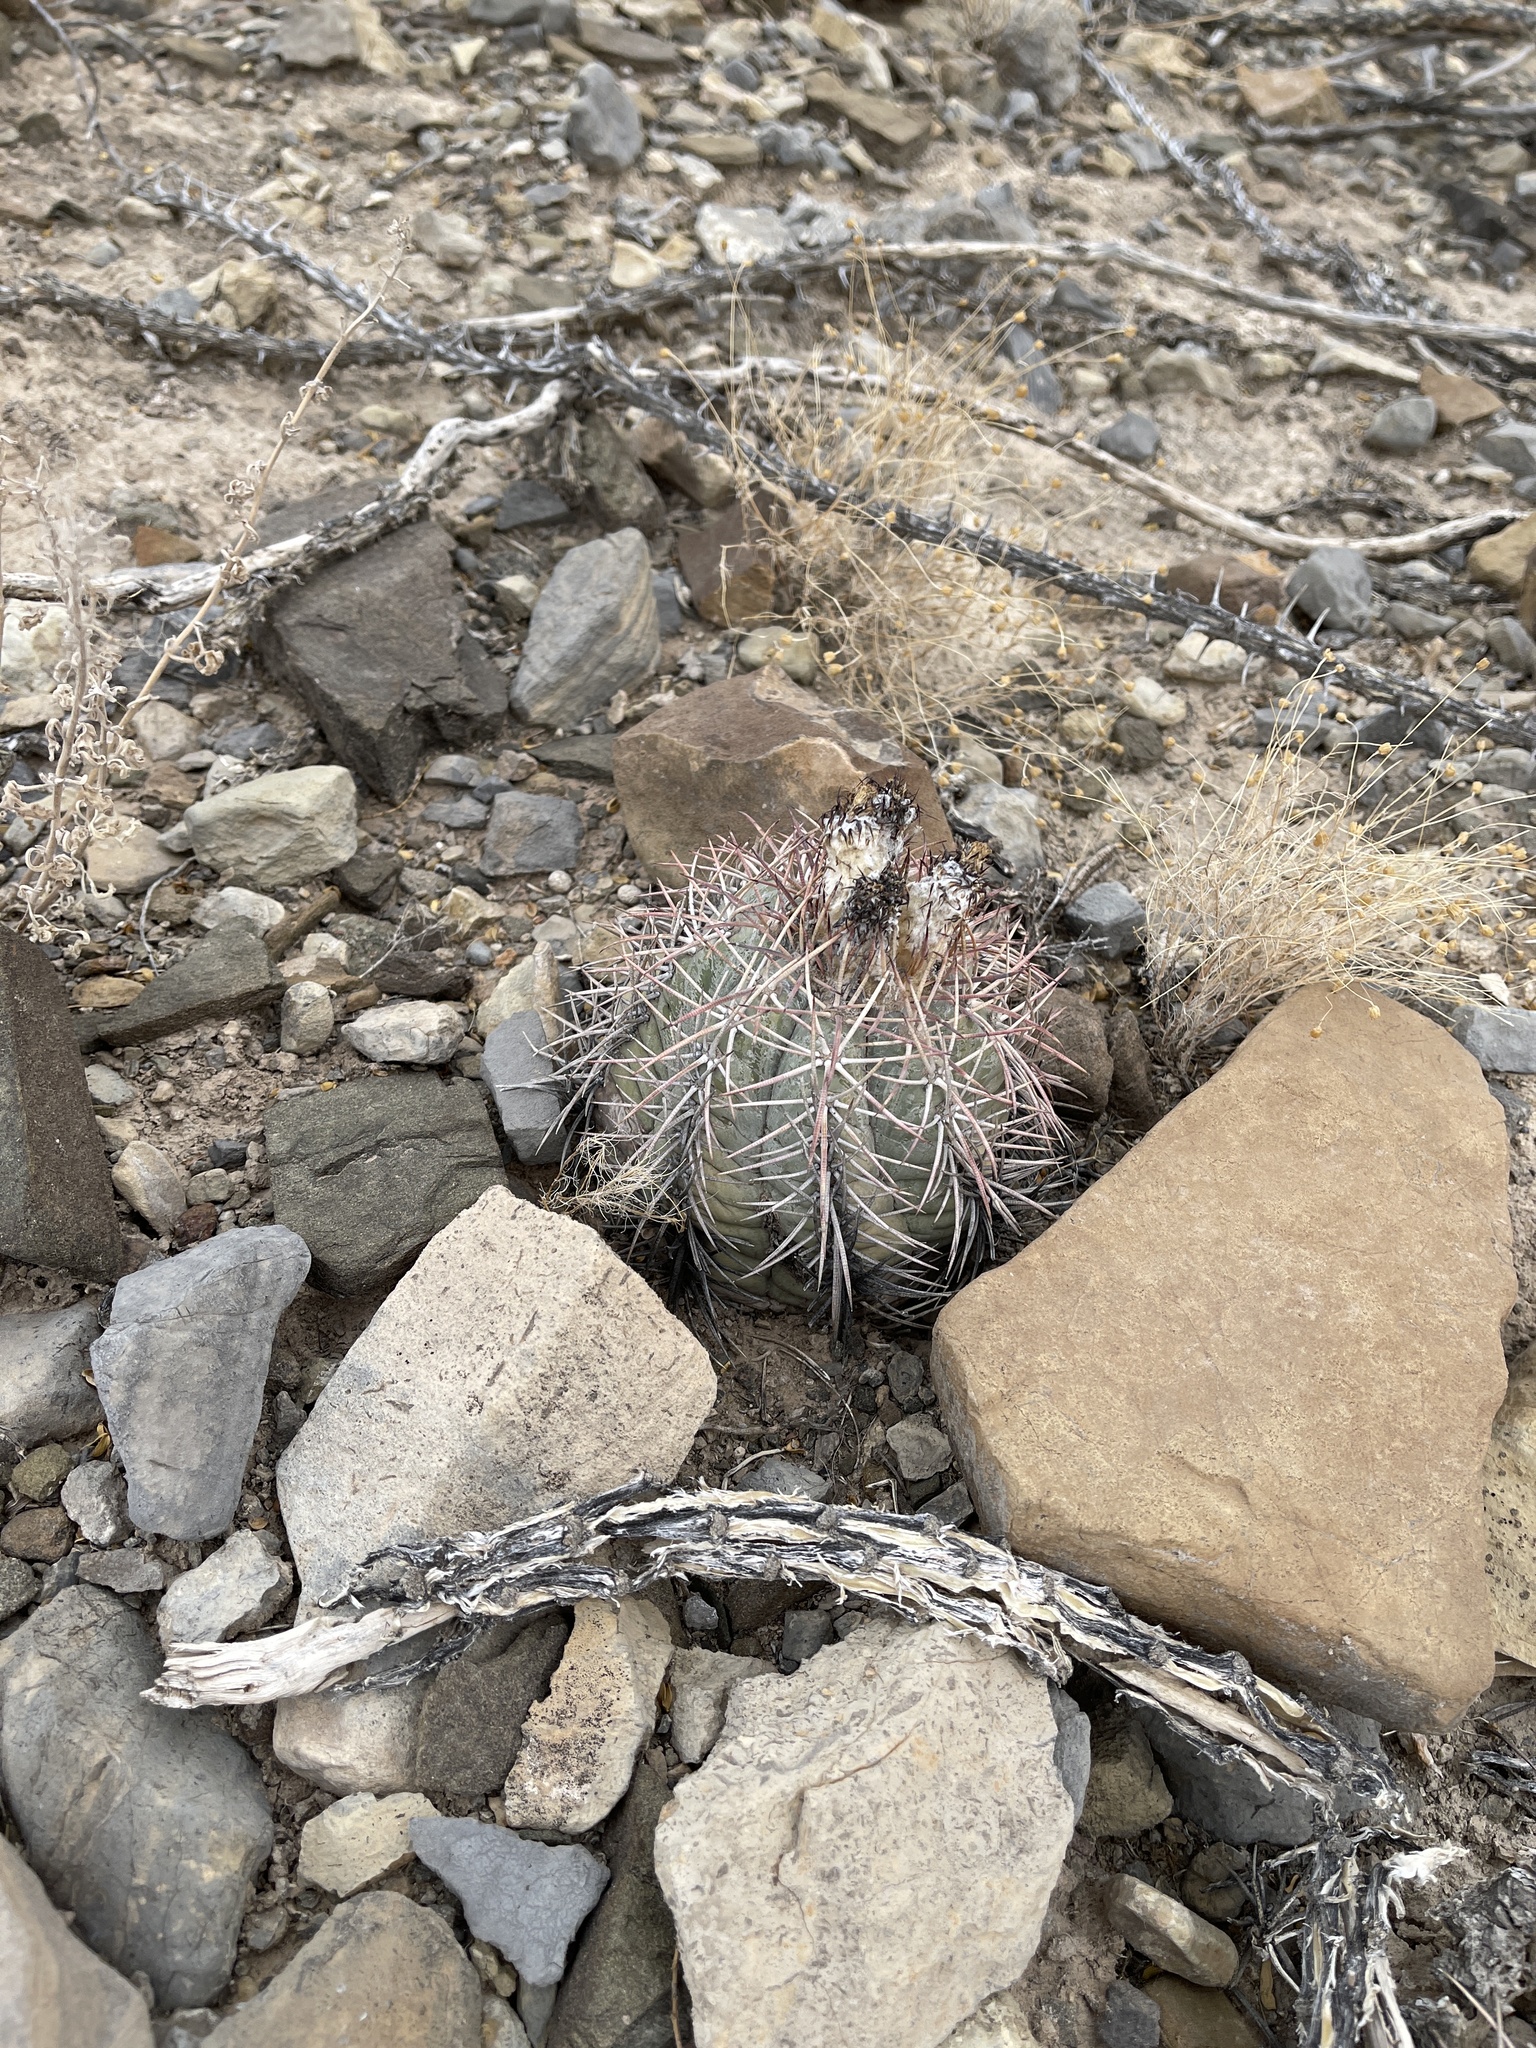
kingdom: Plantae
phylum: Tracheophyta
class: Magnoliopsida
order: Caryophyllales
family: Cactaceae
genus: Echinocactus
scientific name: Echinocactus horizonthalonius
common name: Devilshead
